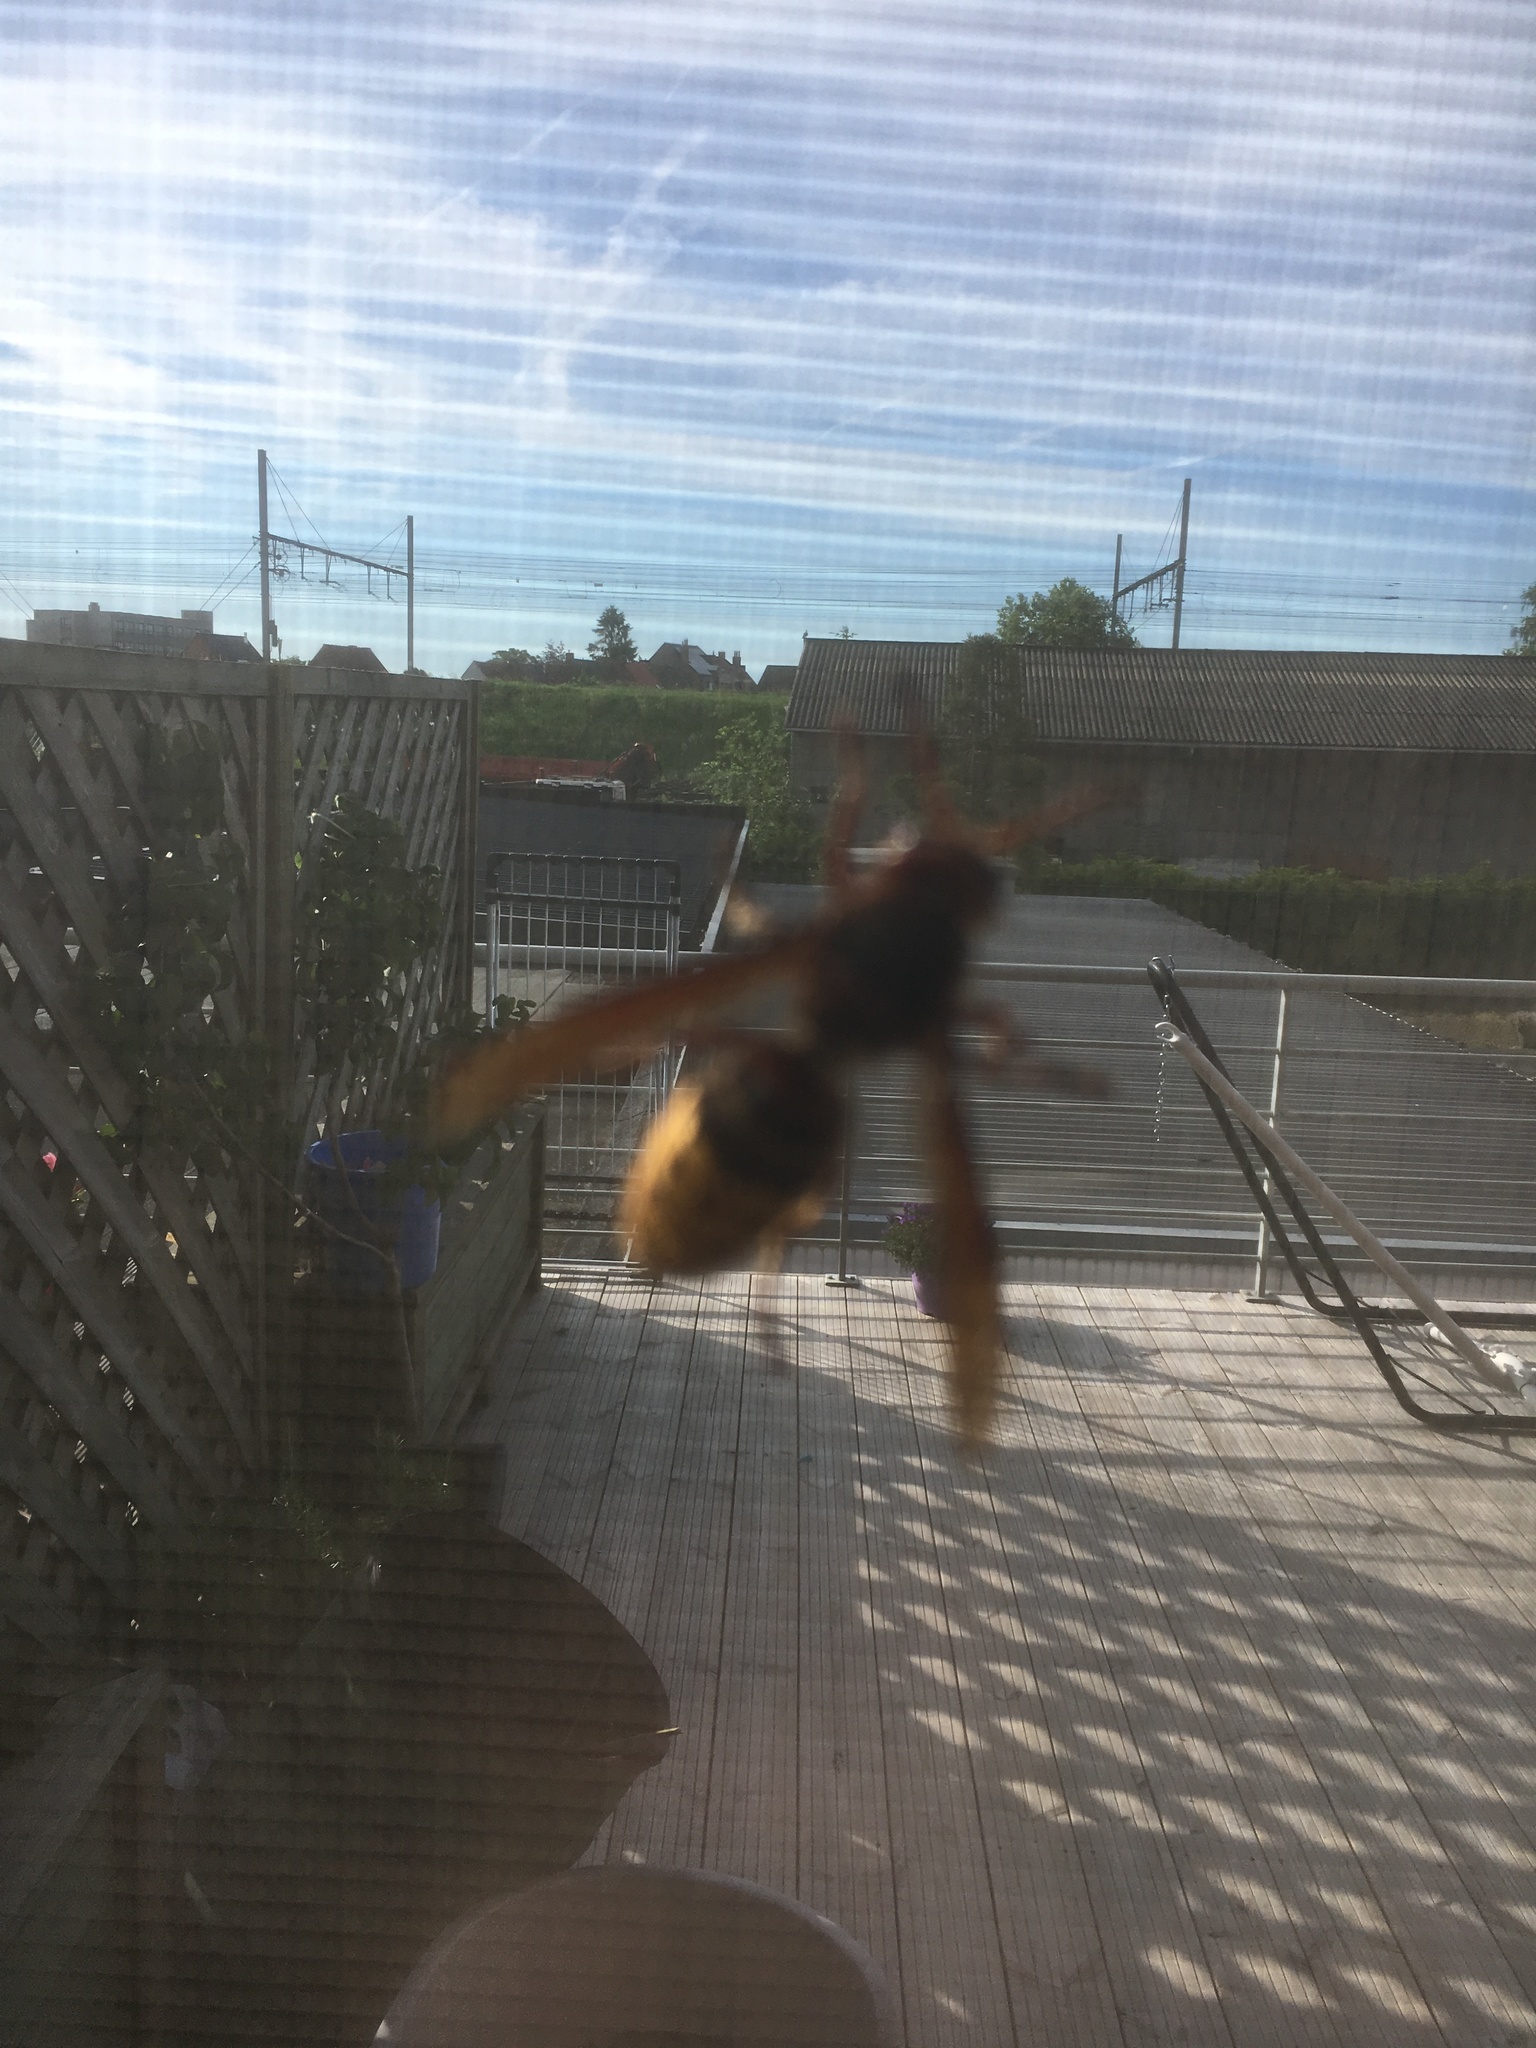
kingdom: Animalia
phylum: Arthropoda
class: Insecta
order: Hymenoptera
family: Vespidae
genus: Vespa
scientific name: Vespa crabro
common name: Hornet
